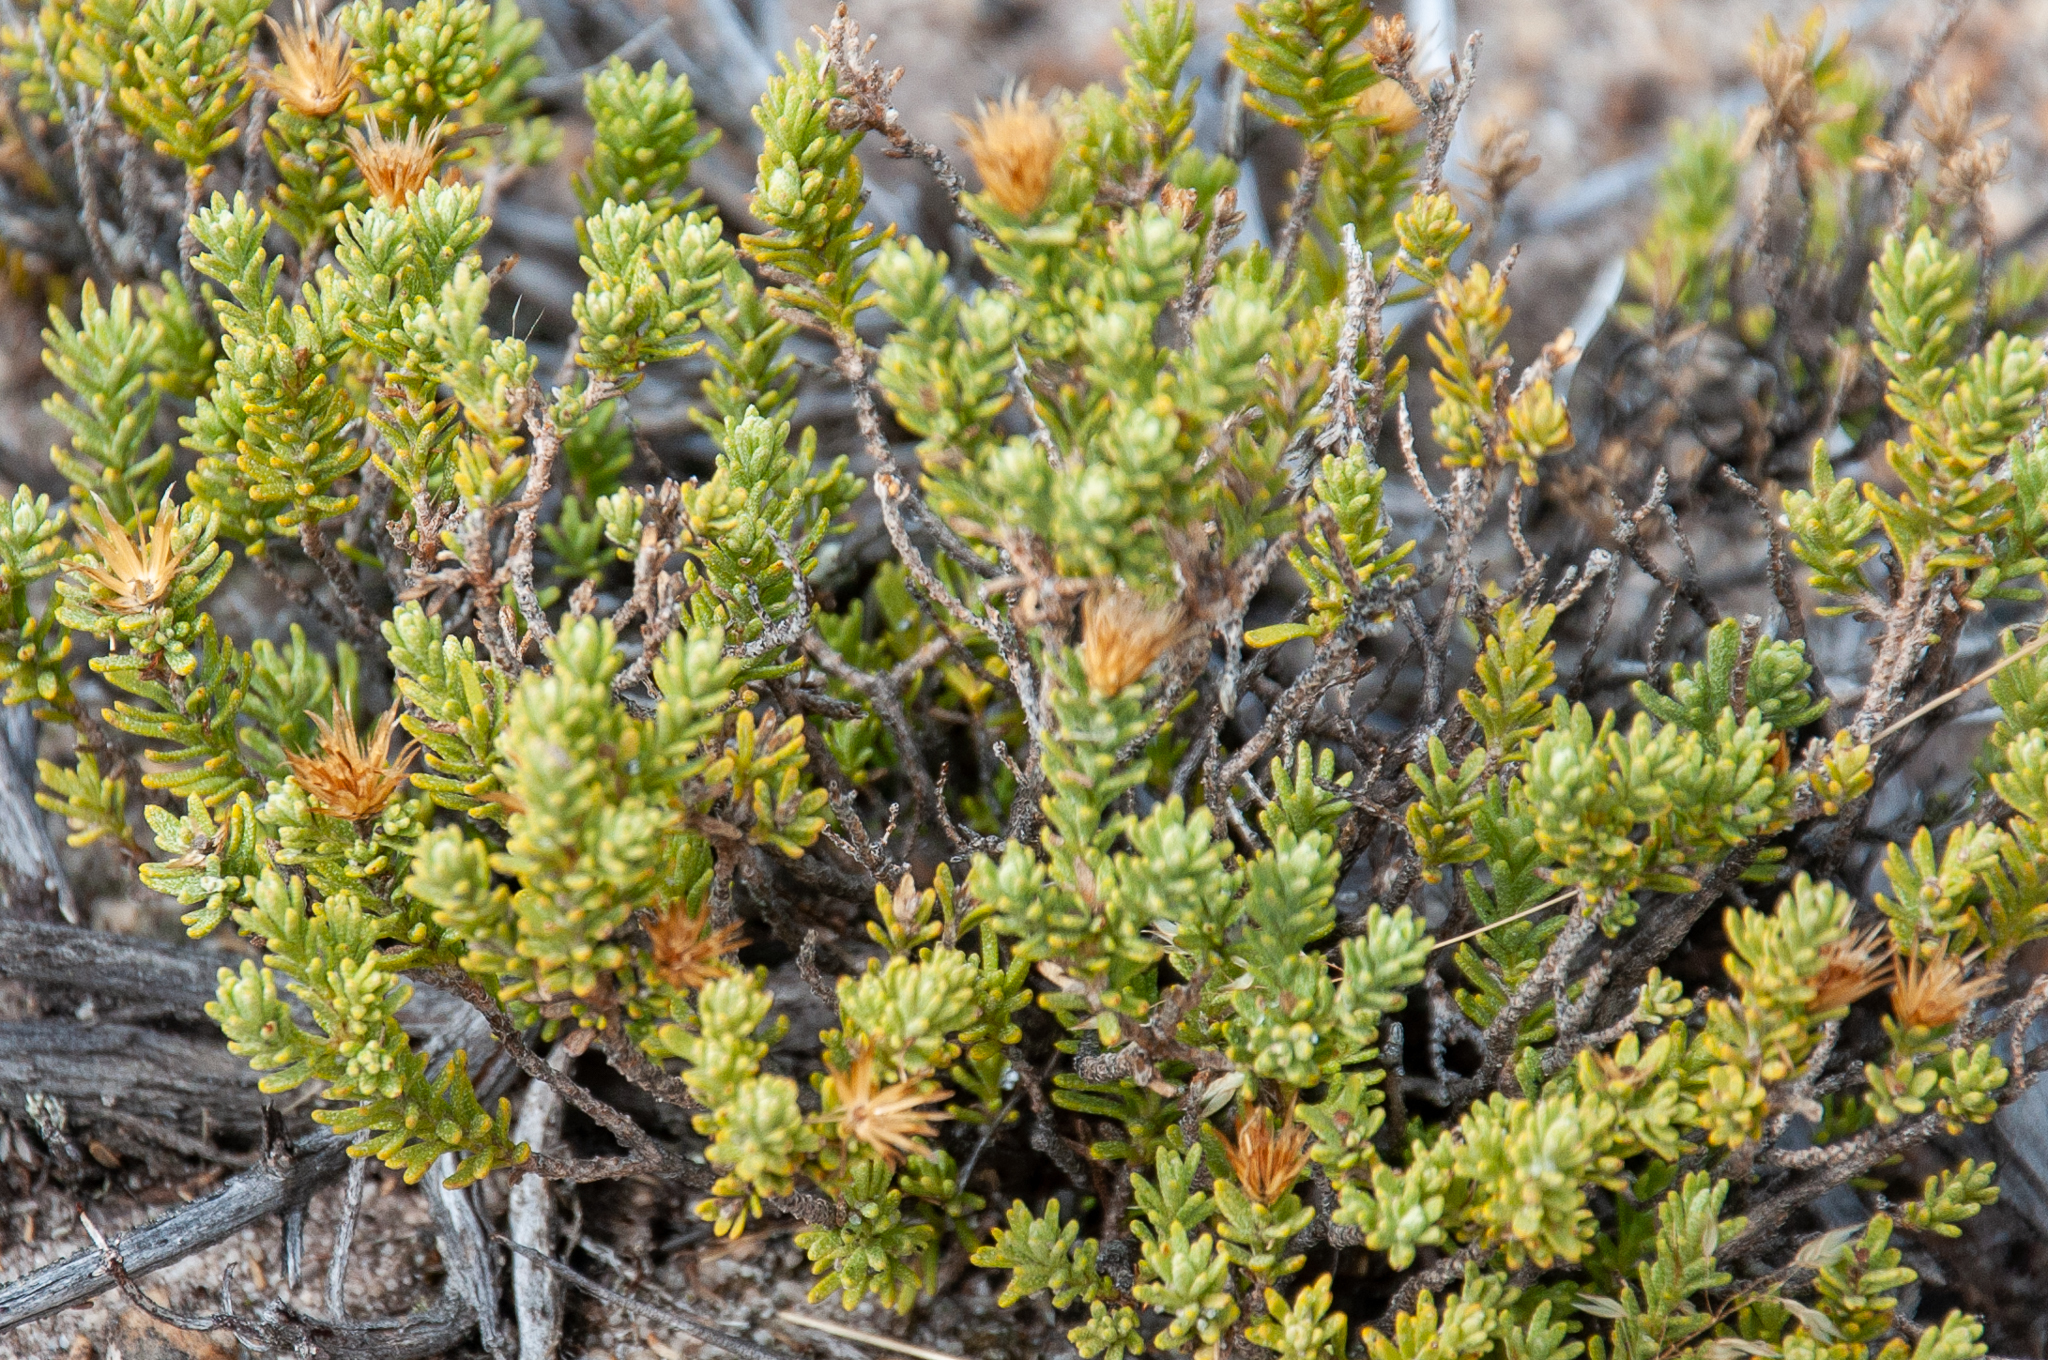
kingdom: Plantae
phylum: Tracheophyta
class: Magnoliopsida
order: Asterales
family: Asteraceae
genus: Oedera
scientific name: Oedera sedifolia
